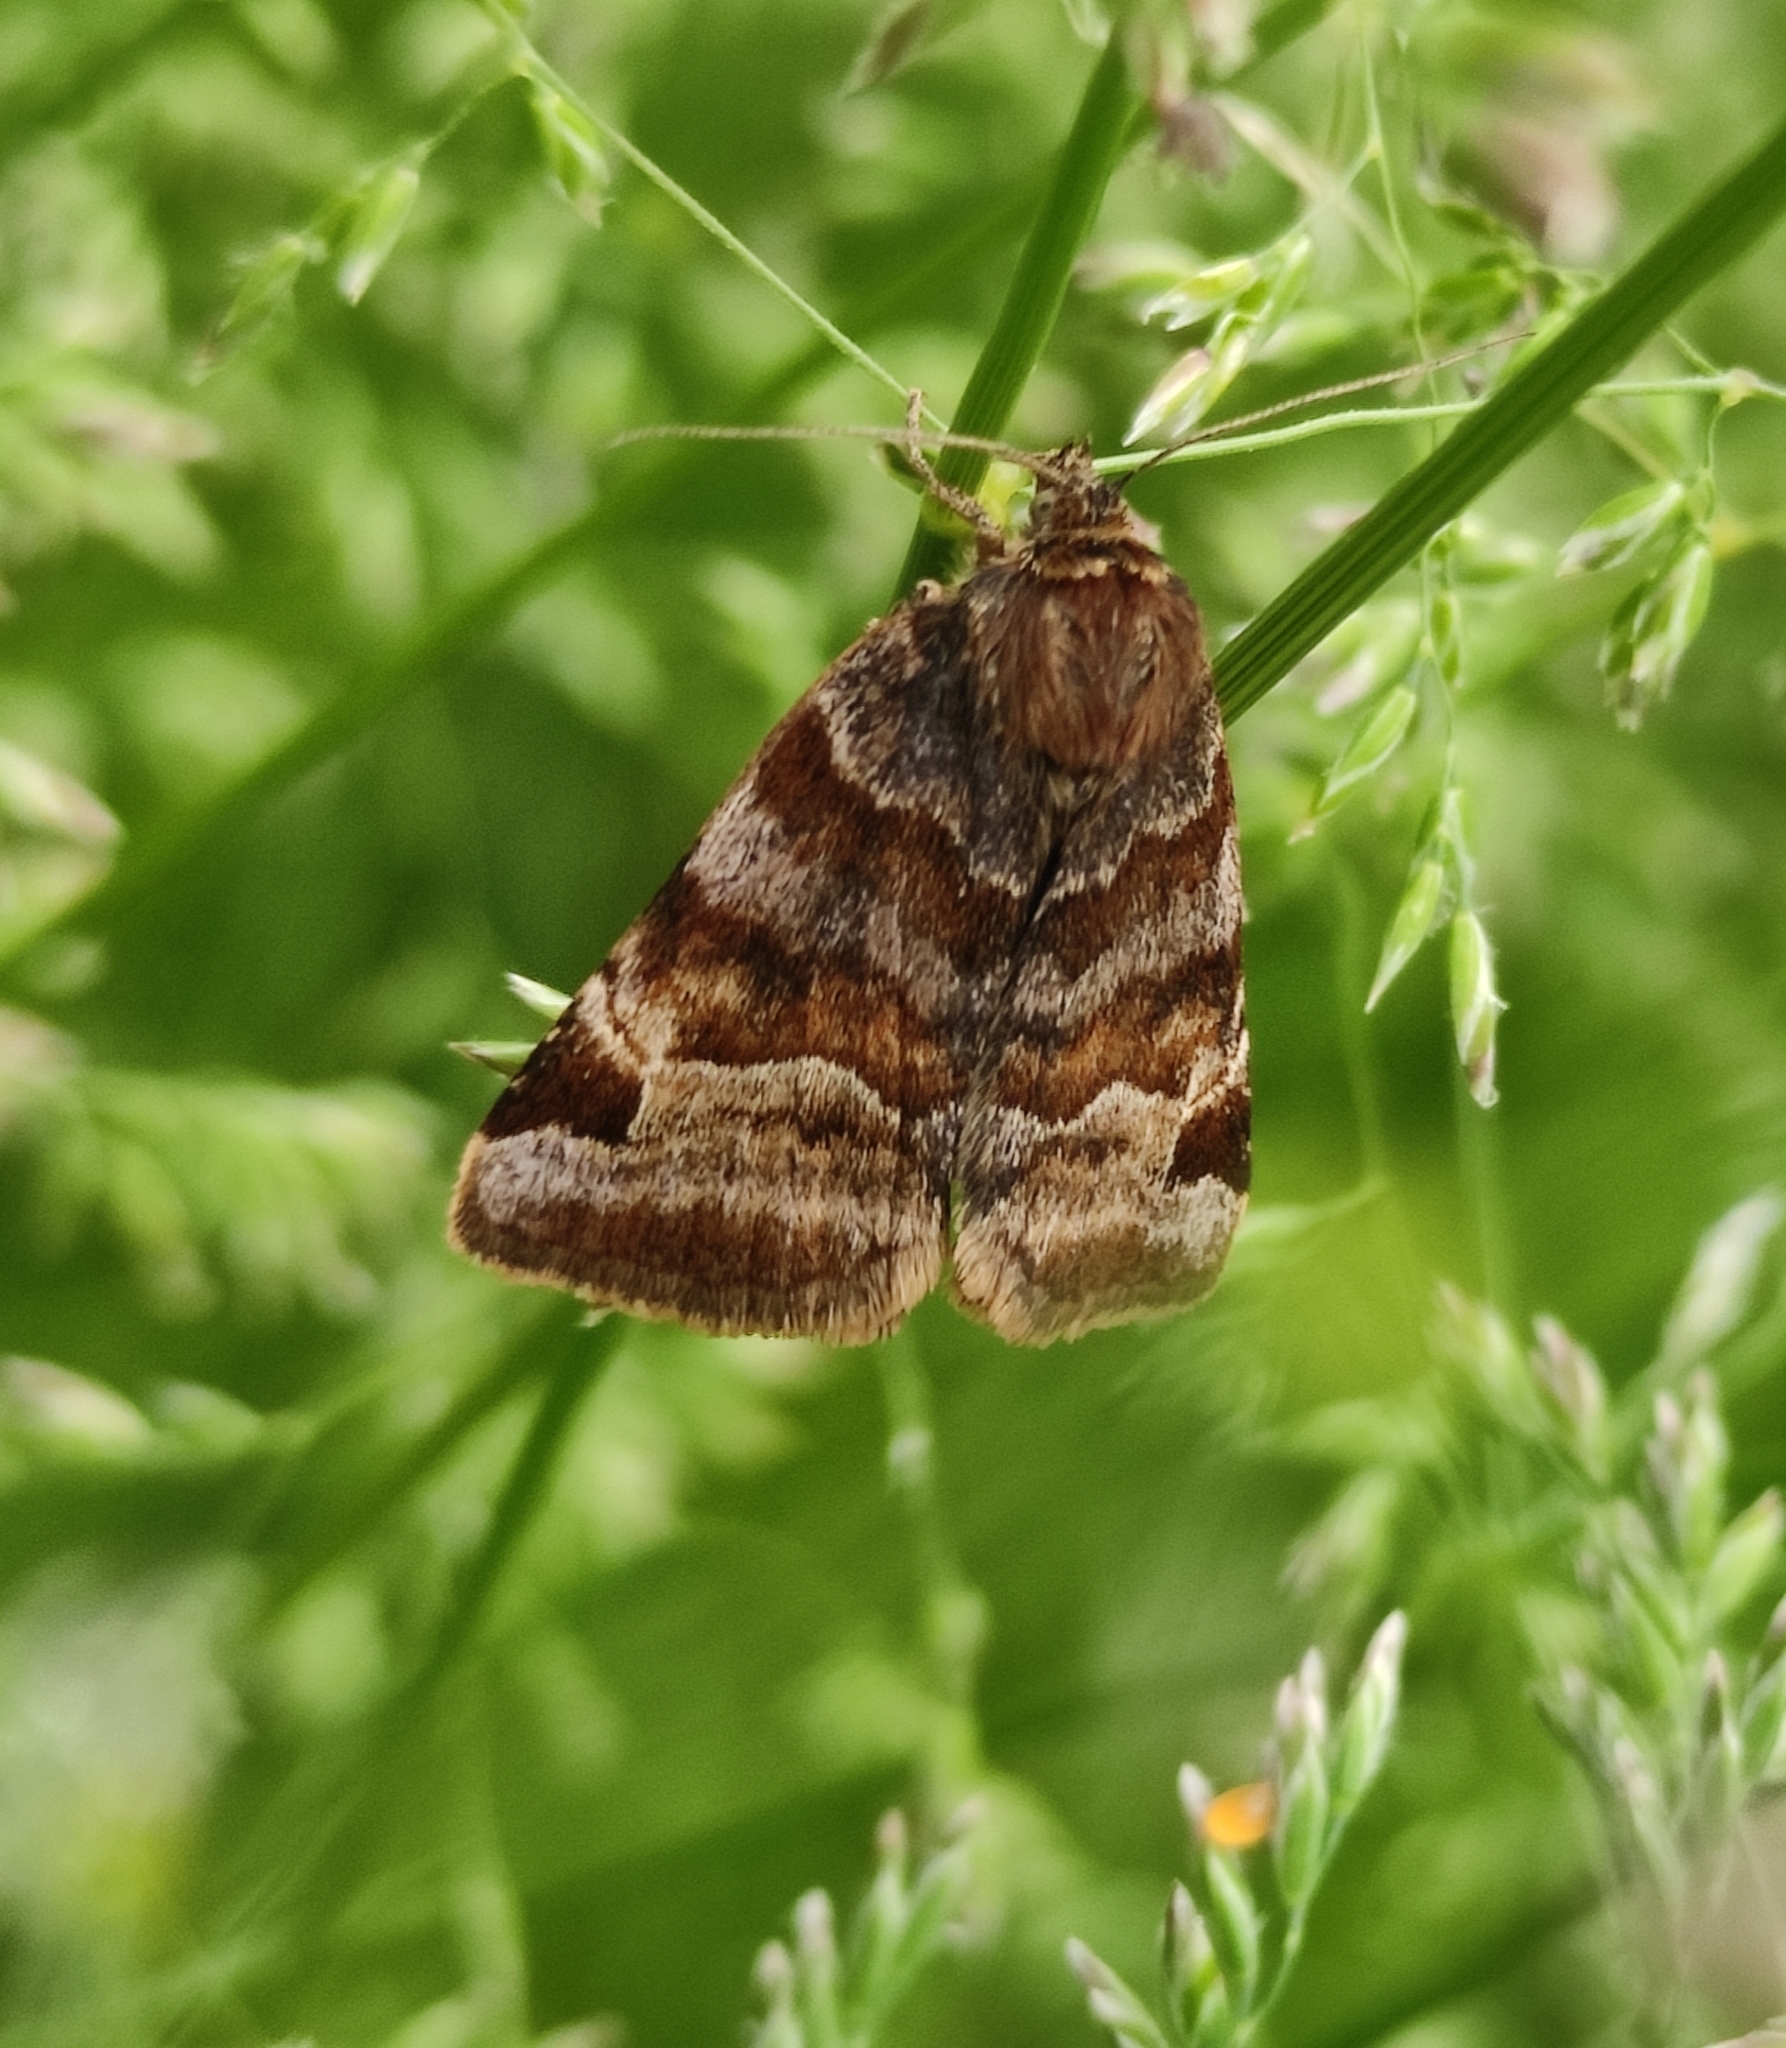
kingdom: Animalia
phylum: Arthropoda
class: Insecta
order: Lepidoptera
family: Erebidae
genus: Euclidia
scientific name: Euclidia glyphica
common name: Burnet companion
